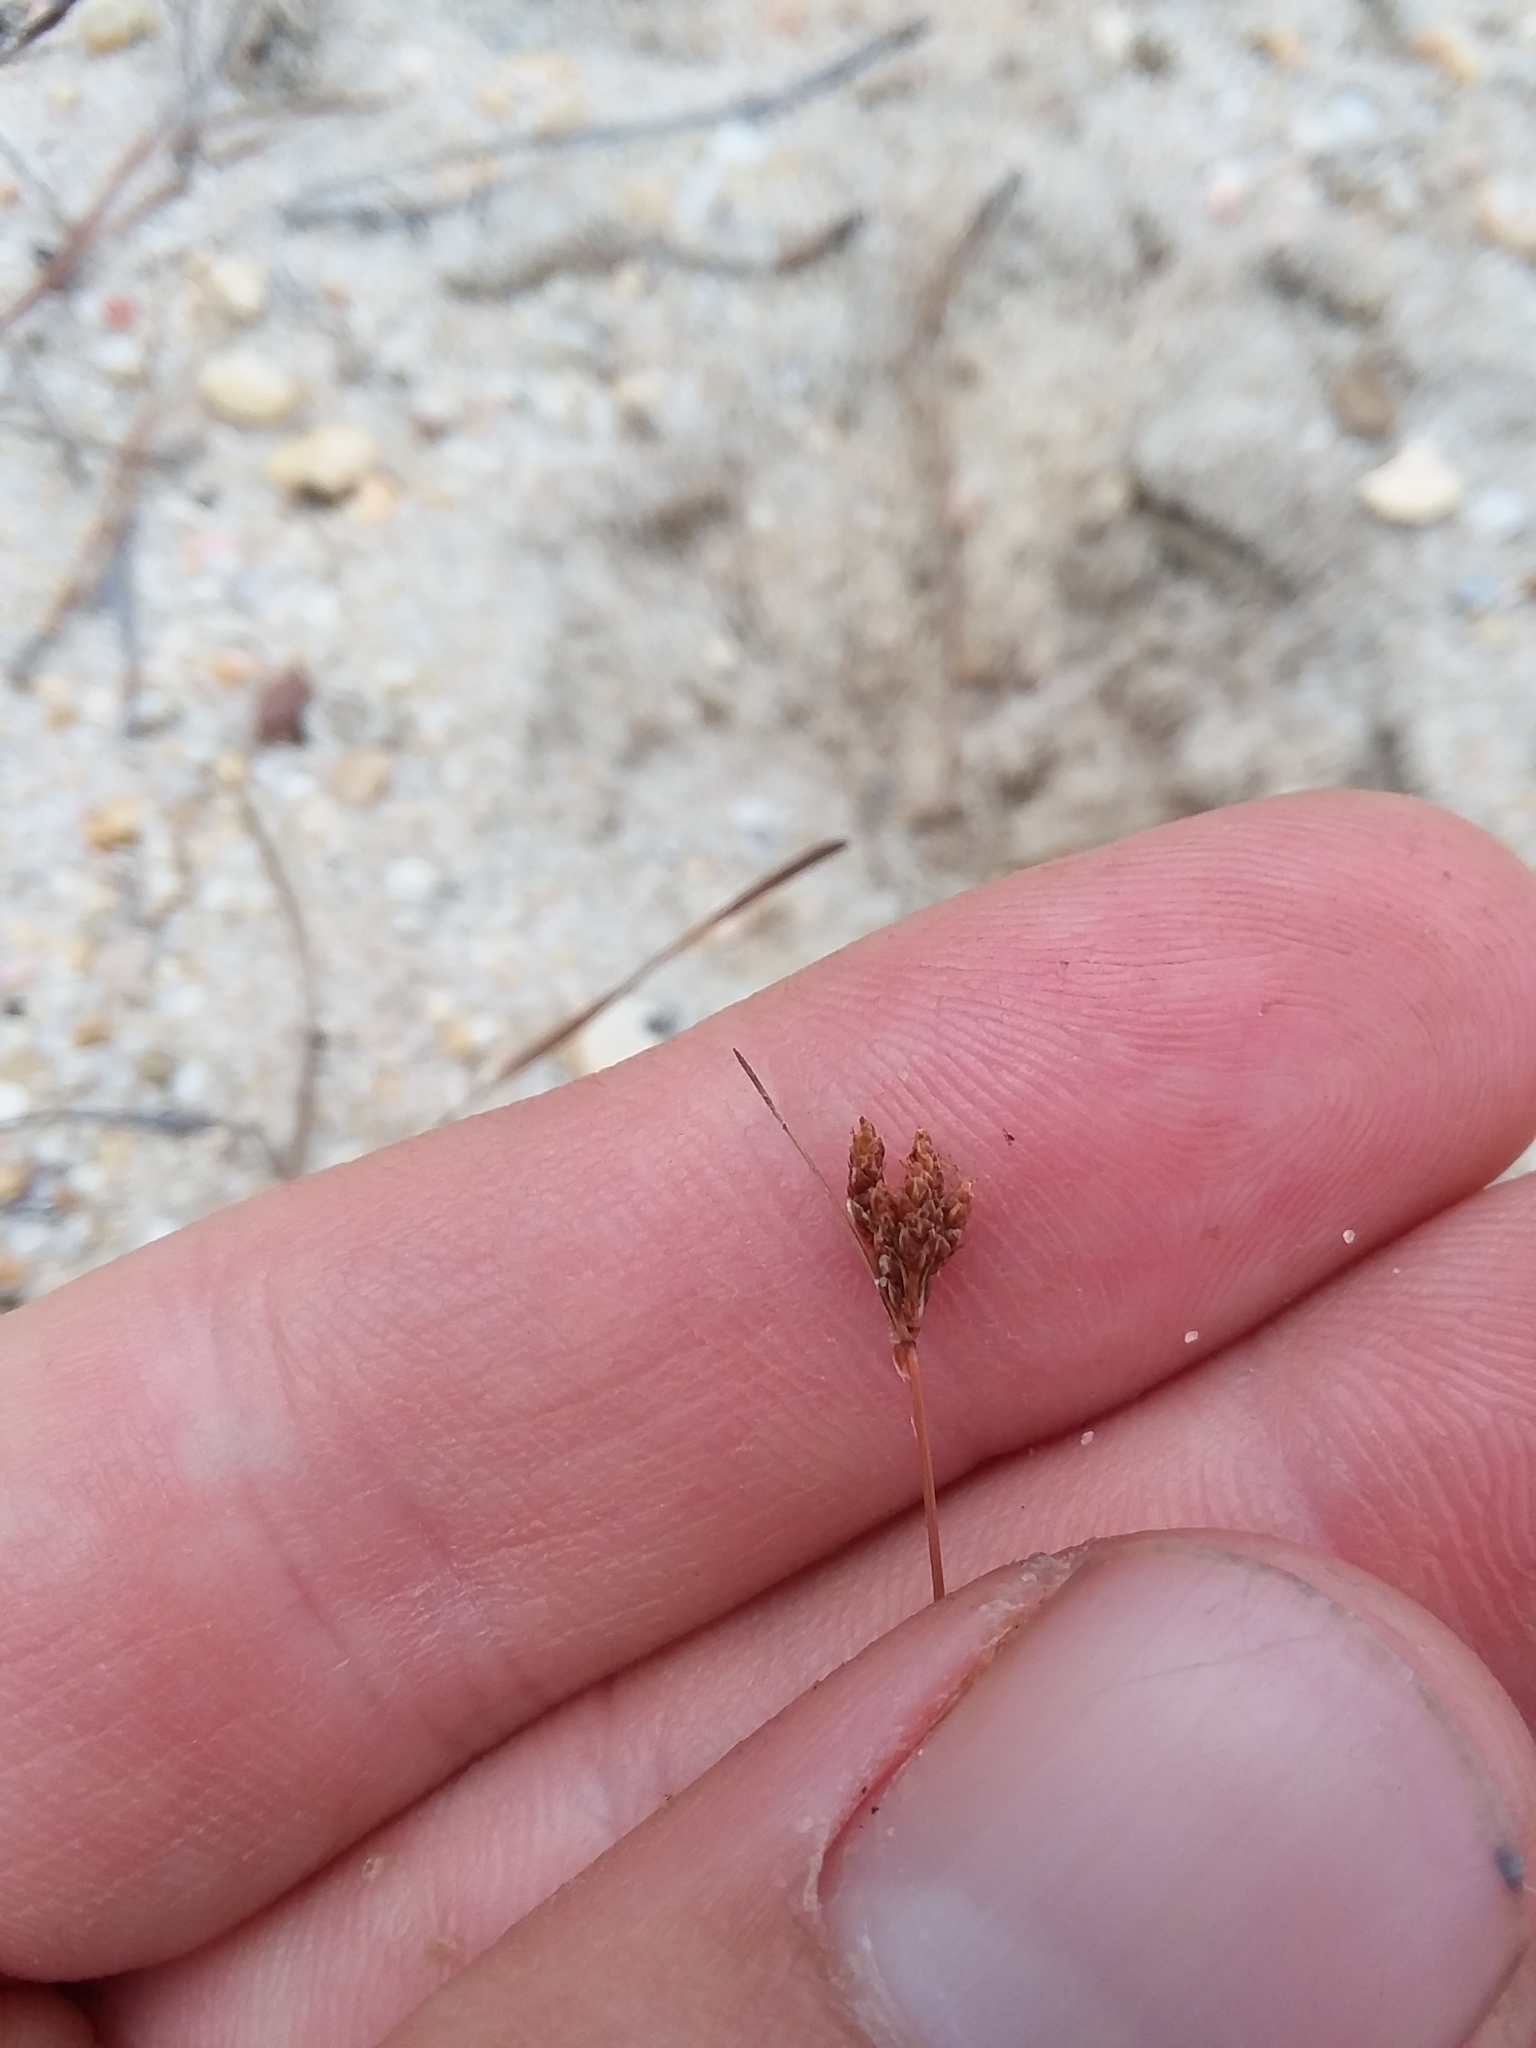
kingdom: Plantae
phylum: Tracheophyta
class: Liliopsida
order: Poales
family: Cyperaceae
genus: Bulbostylis
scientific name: Bulbostylis ciliatifolia
